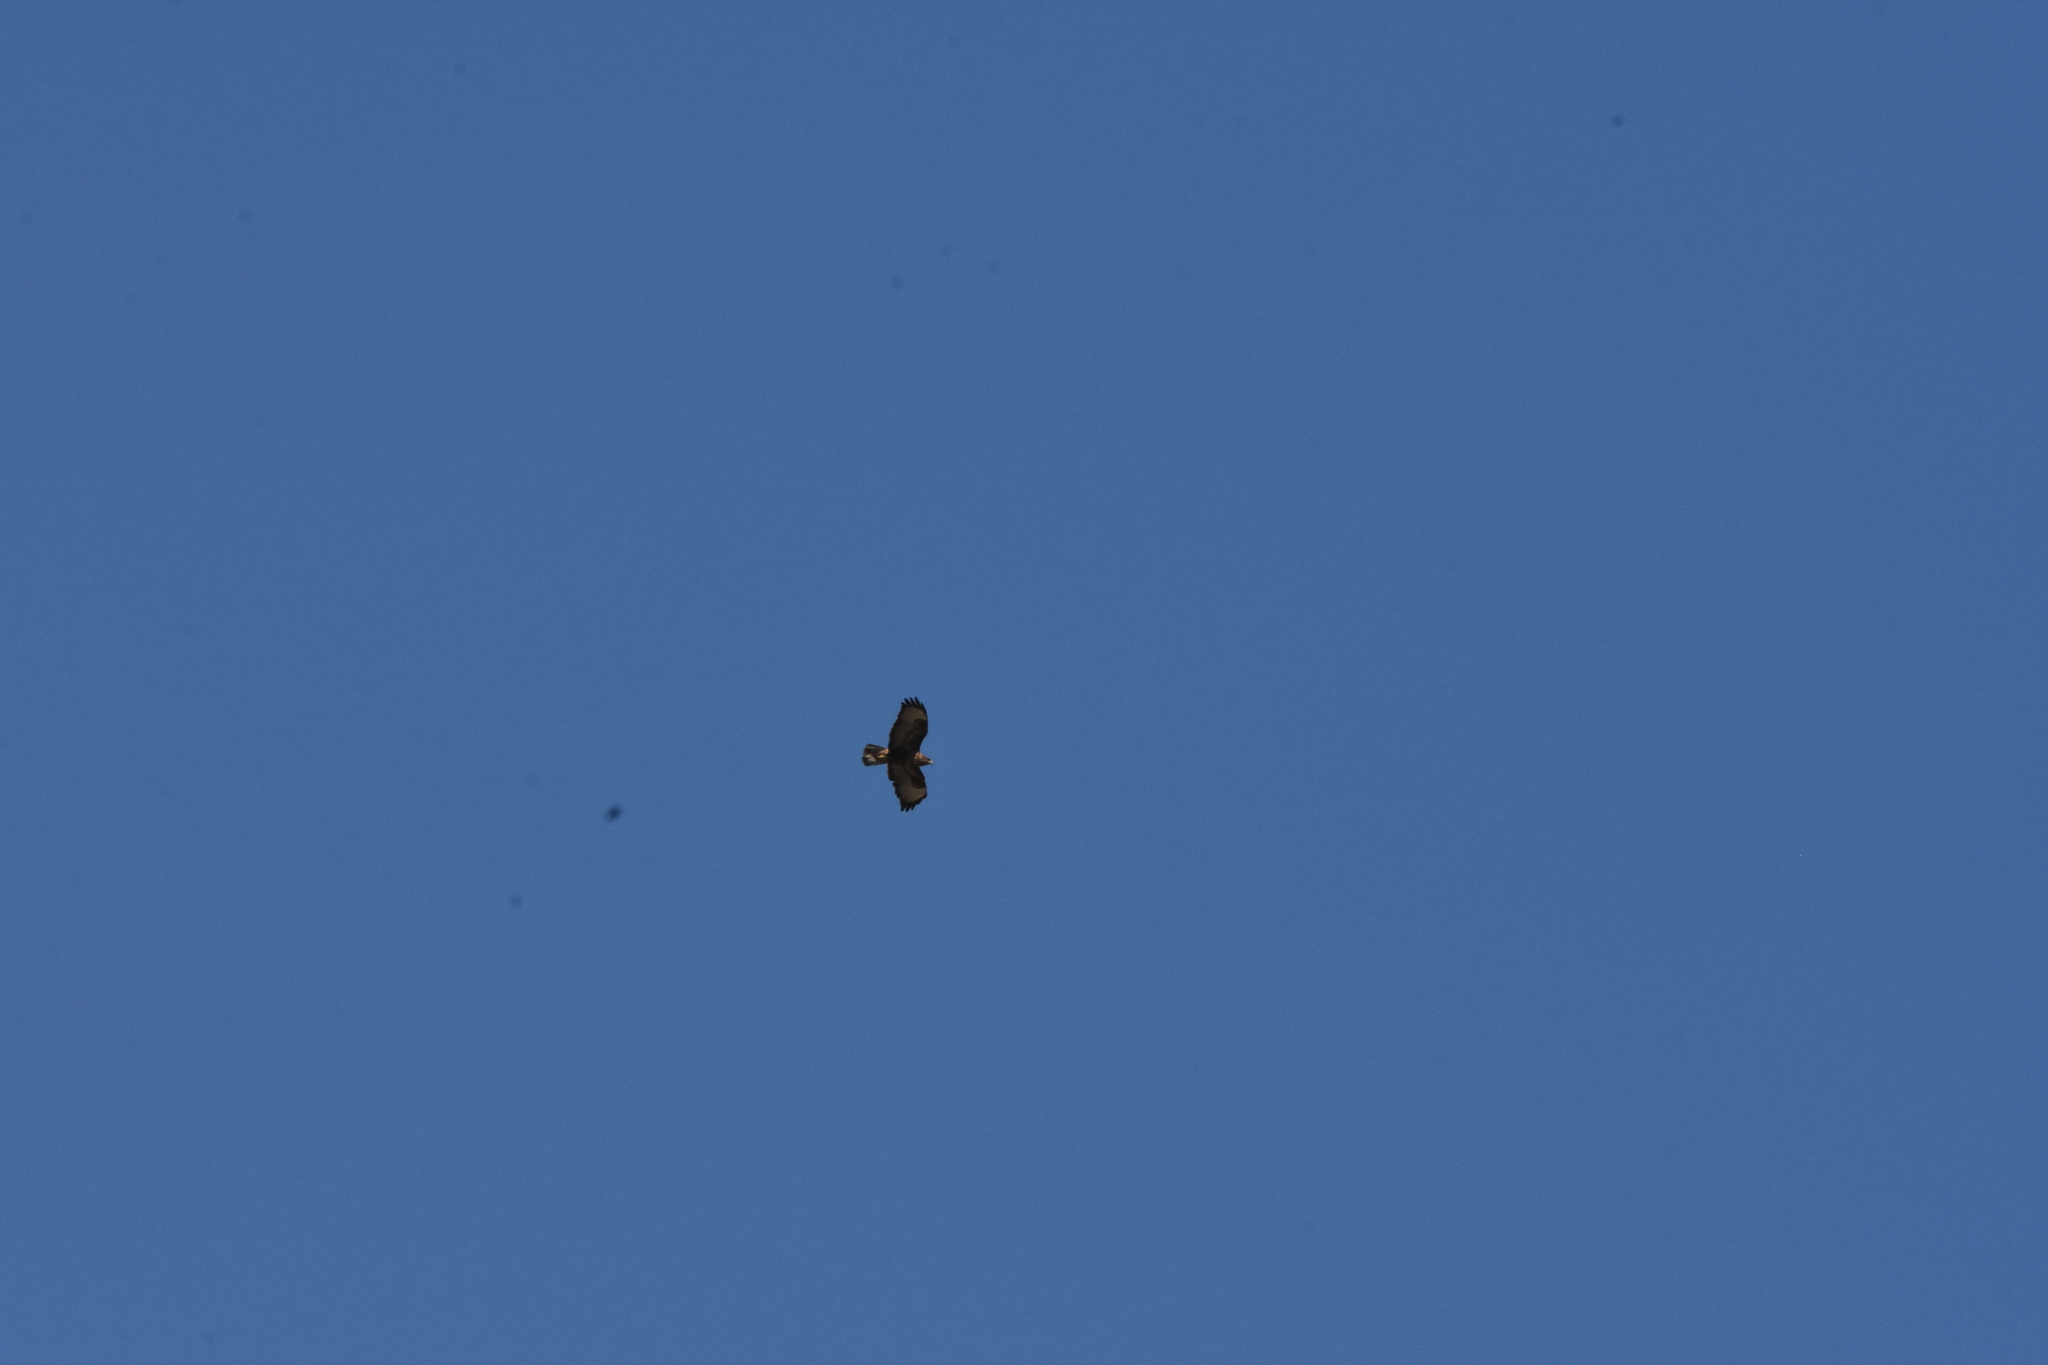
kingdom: Animalia
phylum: Chordata
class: Aves
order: Accipitriformes
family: Accipitridae
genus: Buteo
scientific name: Buteo buteo
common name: Common buzzard
